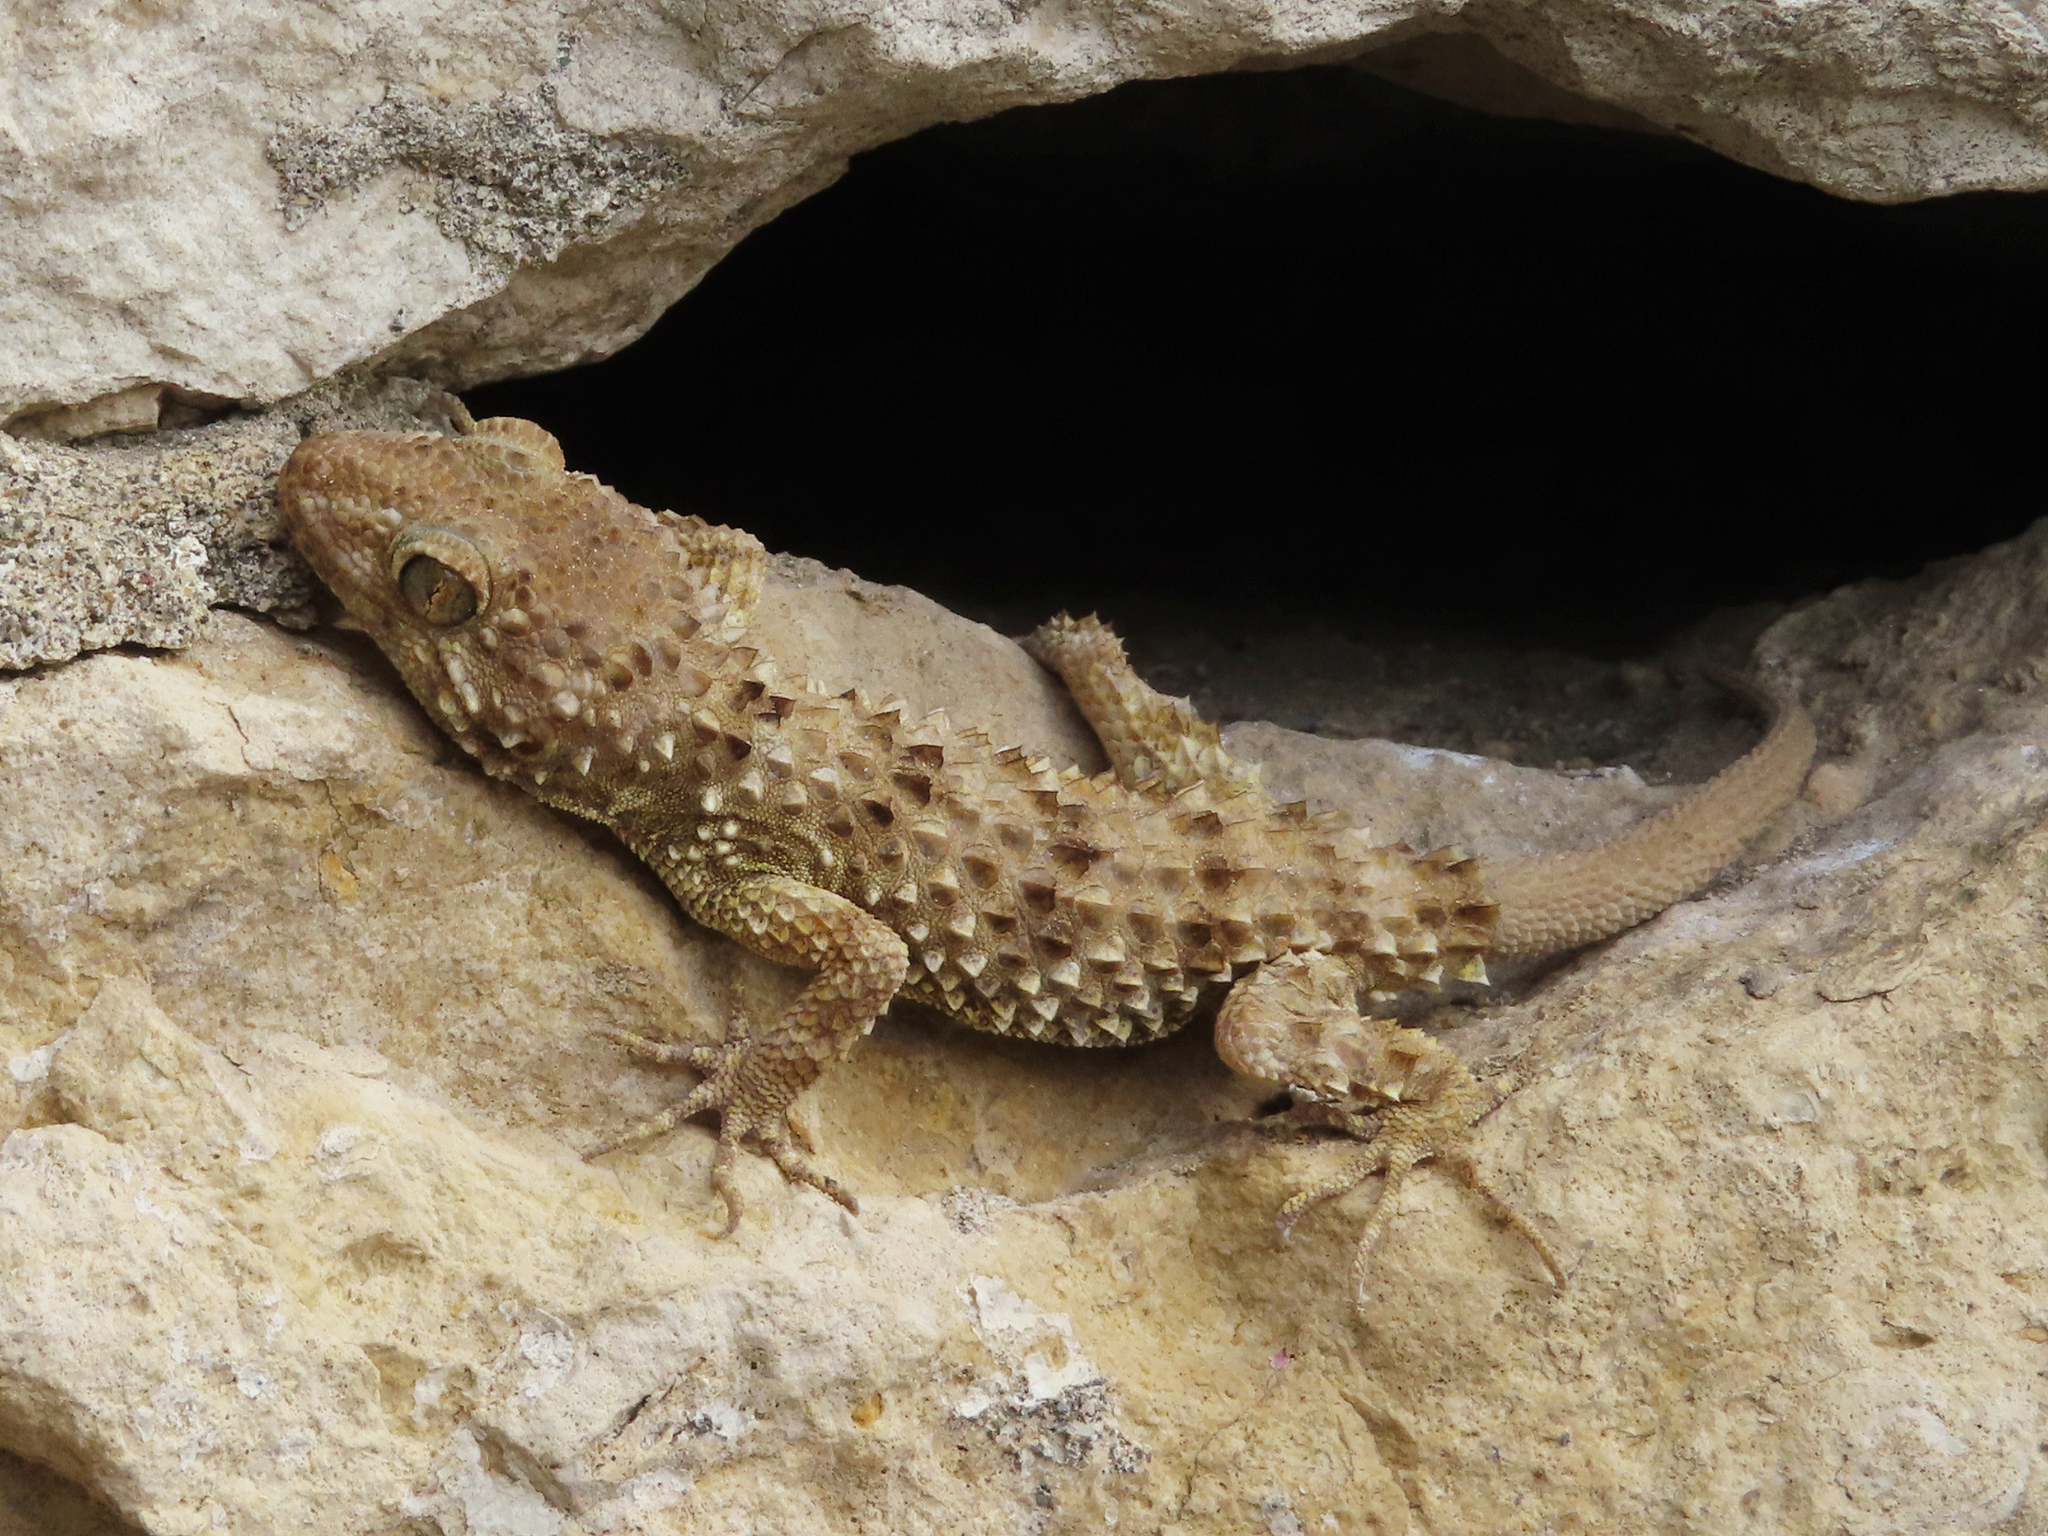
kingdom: Animalia
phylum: Chordata
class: Squamata
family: Gekkonidae
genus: Tenuidactylus
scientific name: Tenuidactylus caspius
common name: Caspian bent-toed gecko
